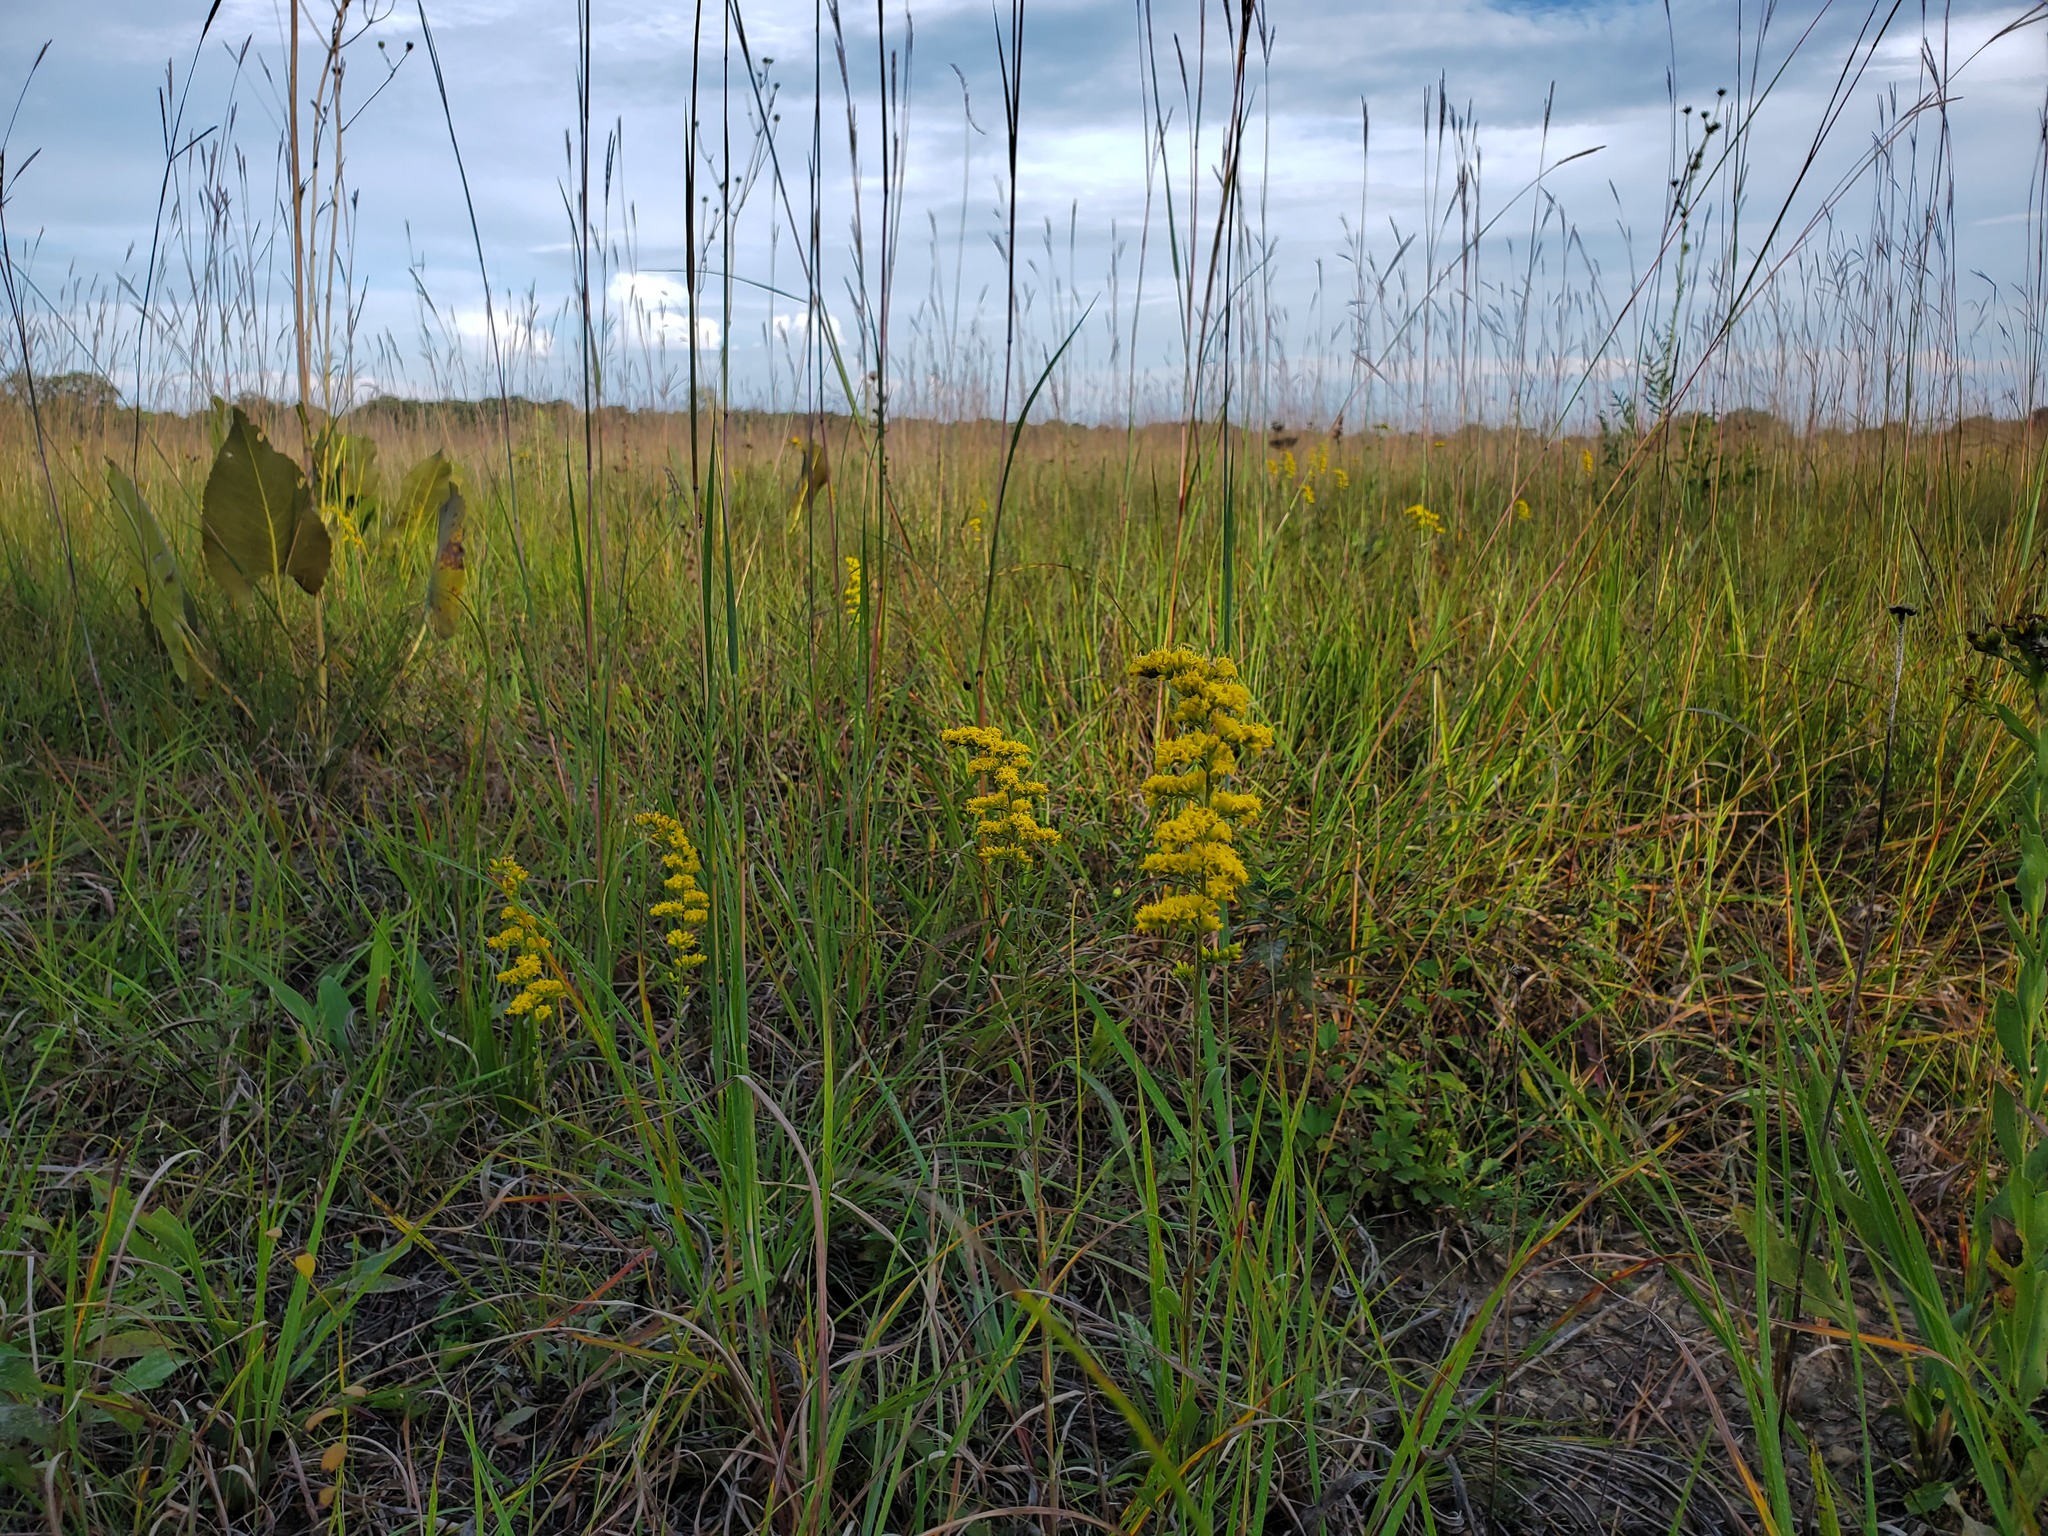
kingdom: Plantae
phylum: Tracheophyta
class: Liliopsida
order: Poales
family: Poaceae
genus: Andropogon
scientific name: Andropogon gerardi
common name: Big bluestem
